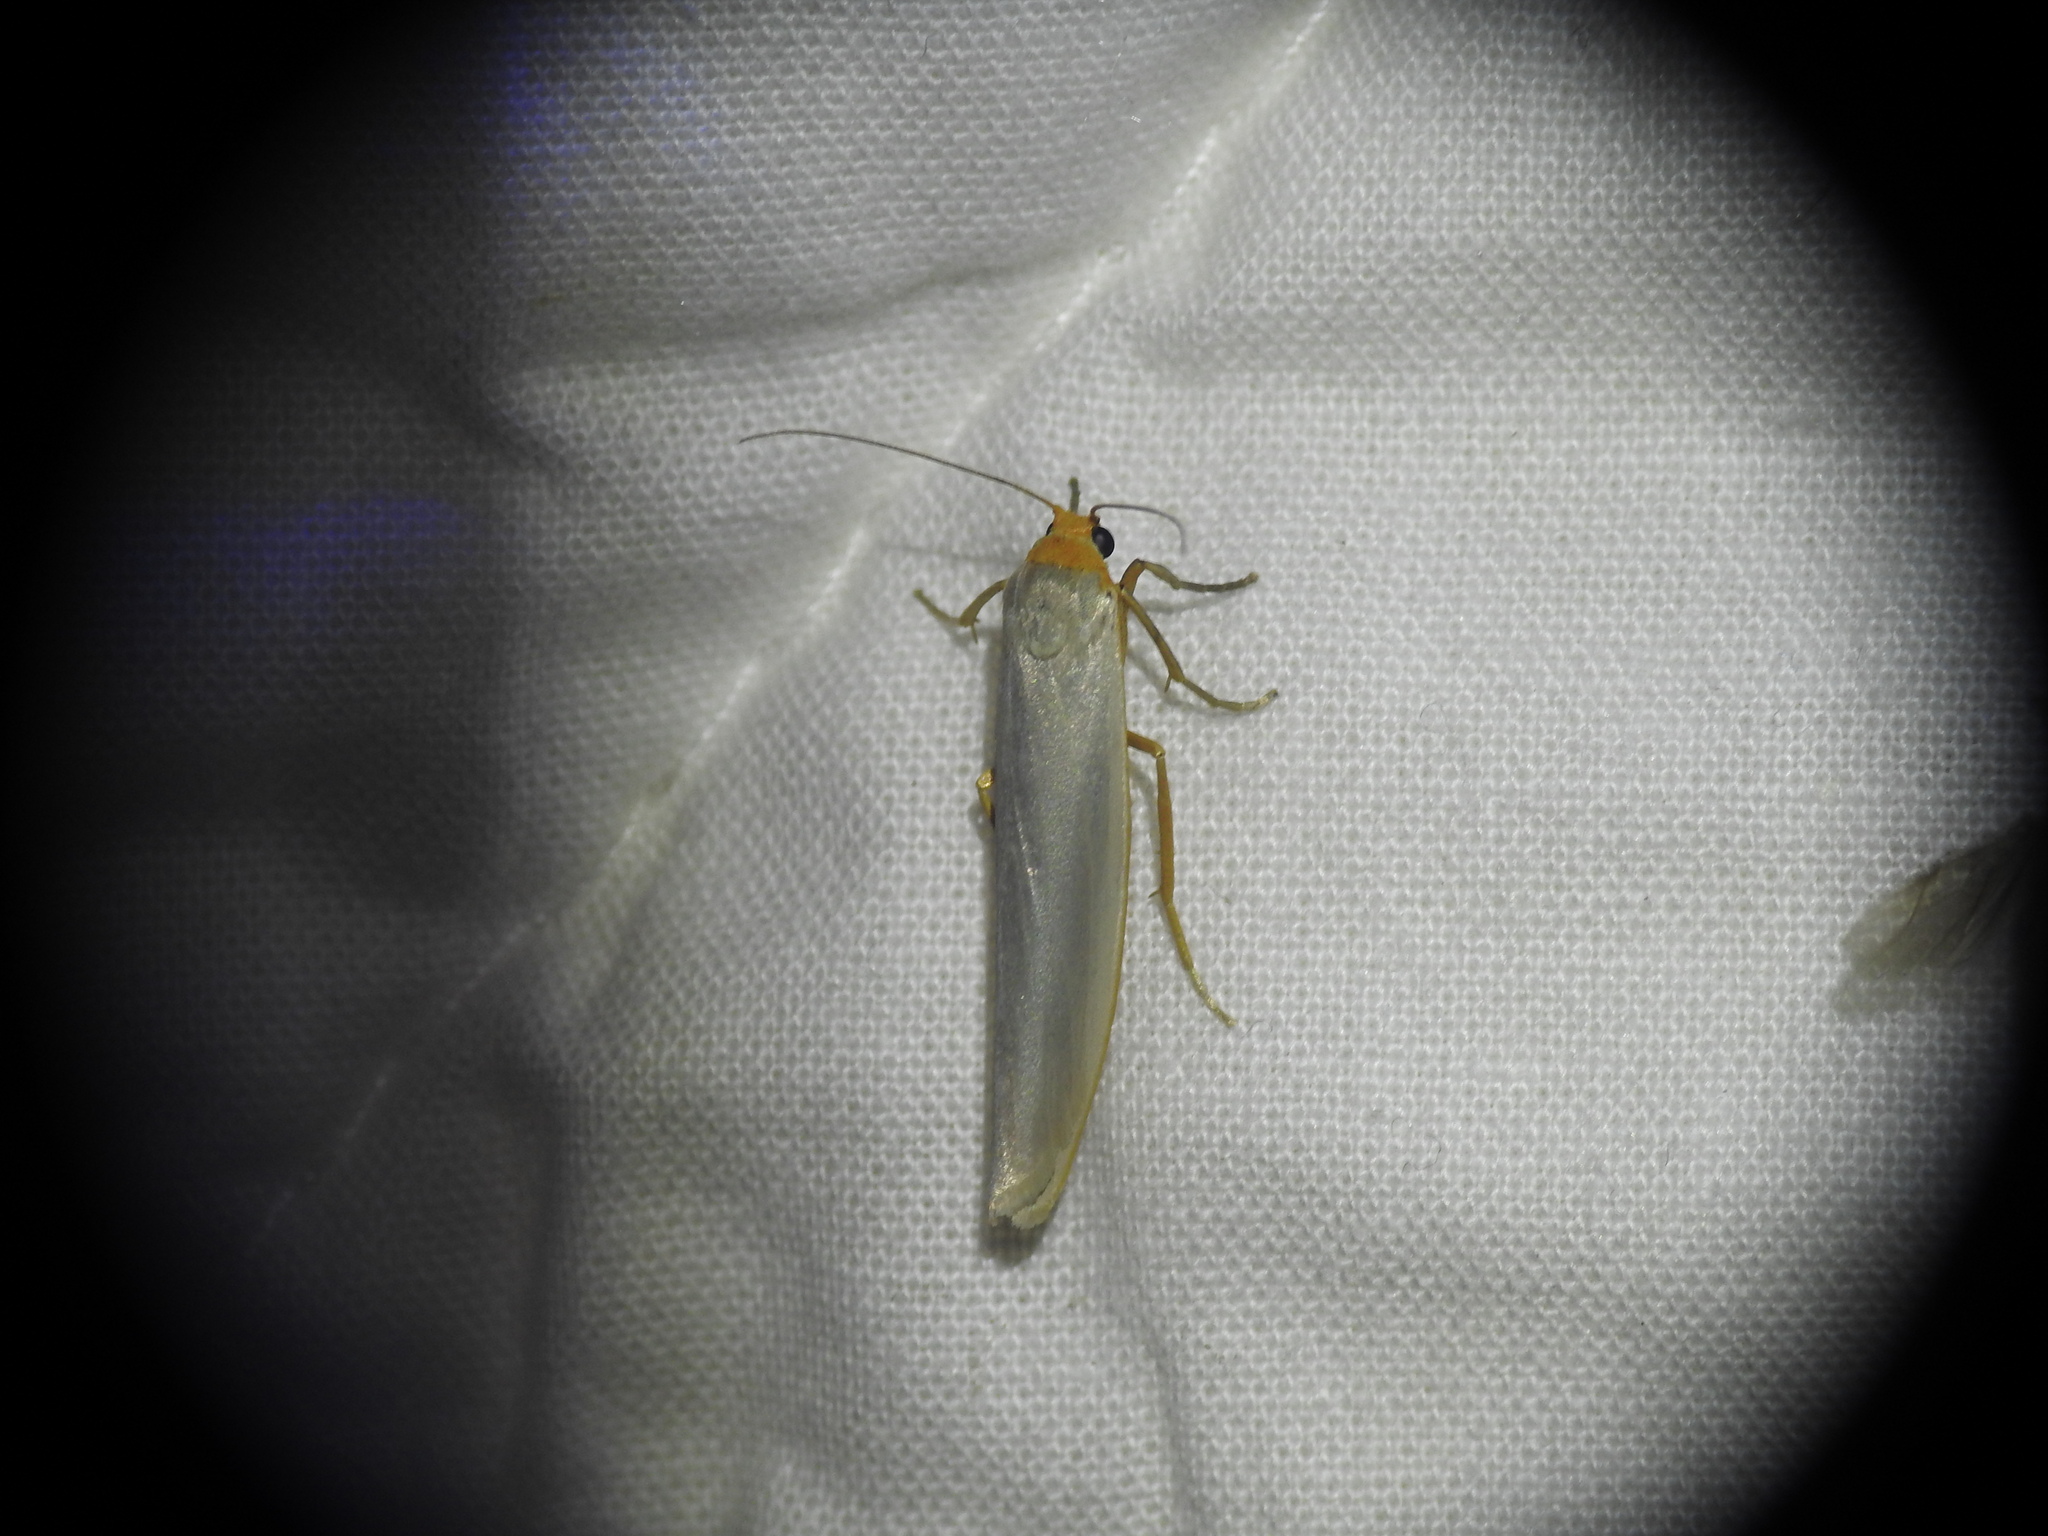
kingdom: Animalia
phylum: Arthropoda
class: Insecta
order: Lepidoptera
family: Erebidae
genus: Eilema
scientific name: Eilema caniola
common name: Hoary footman
